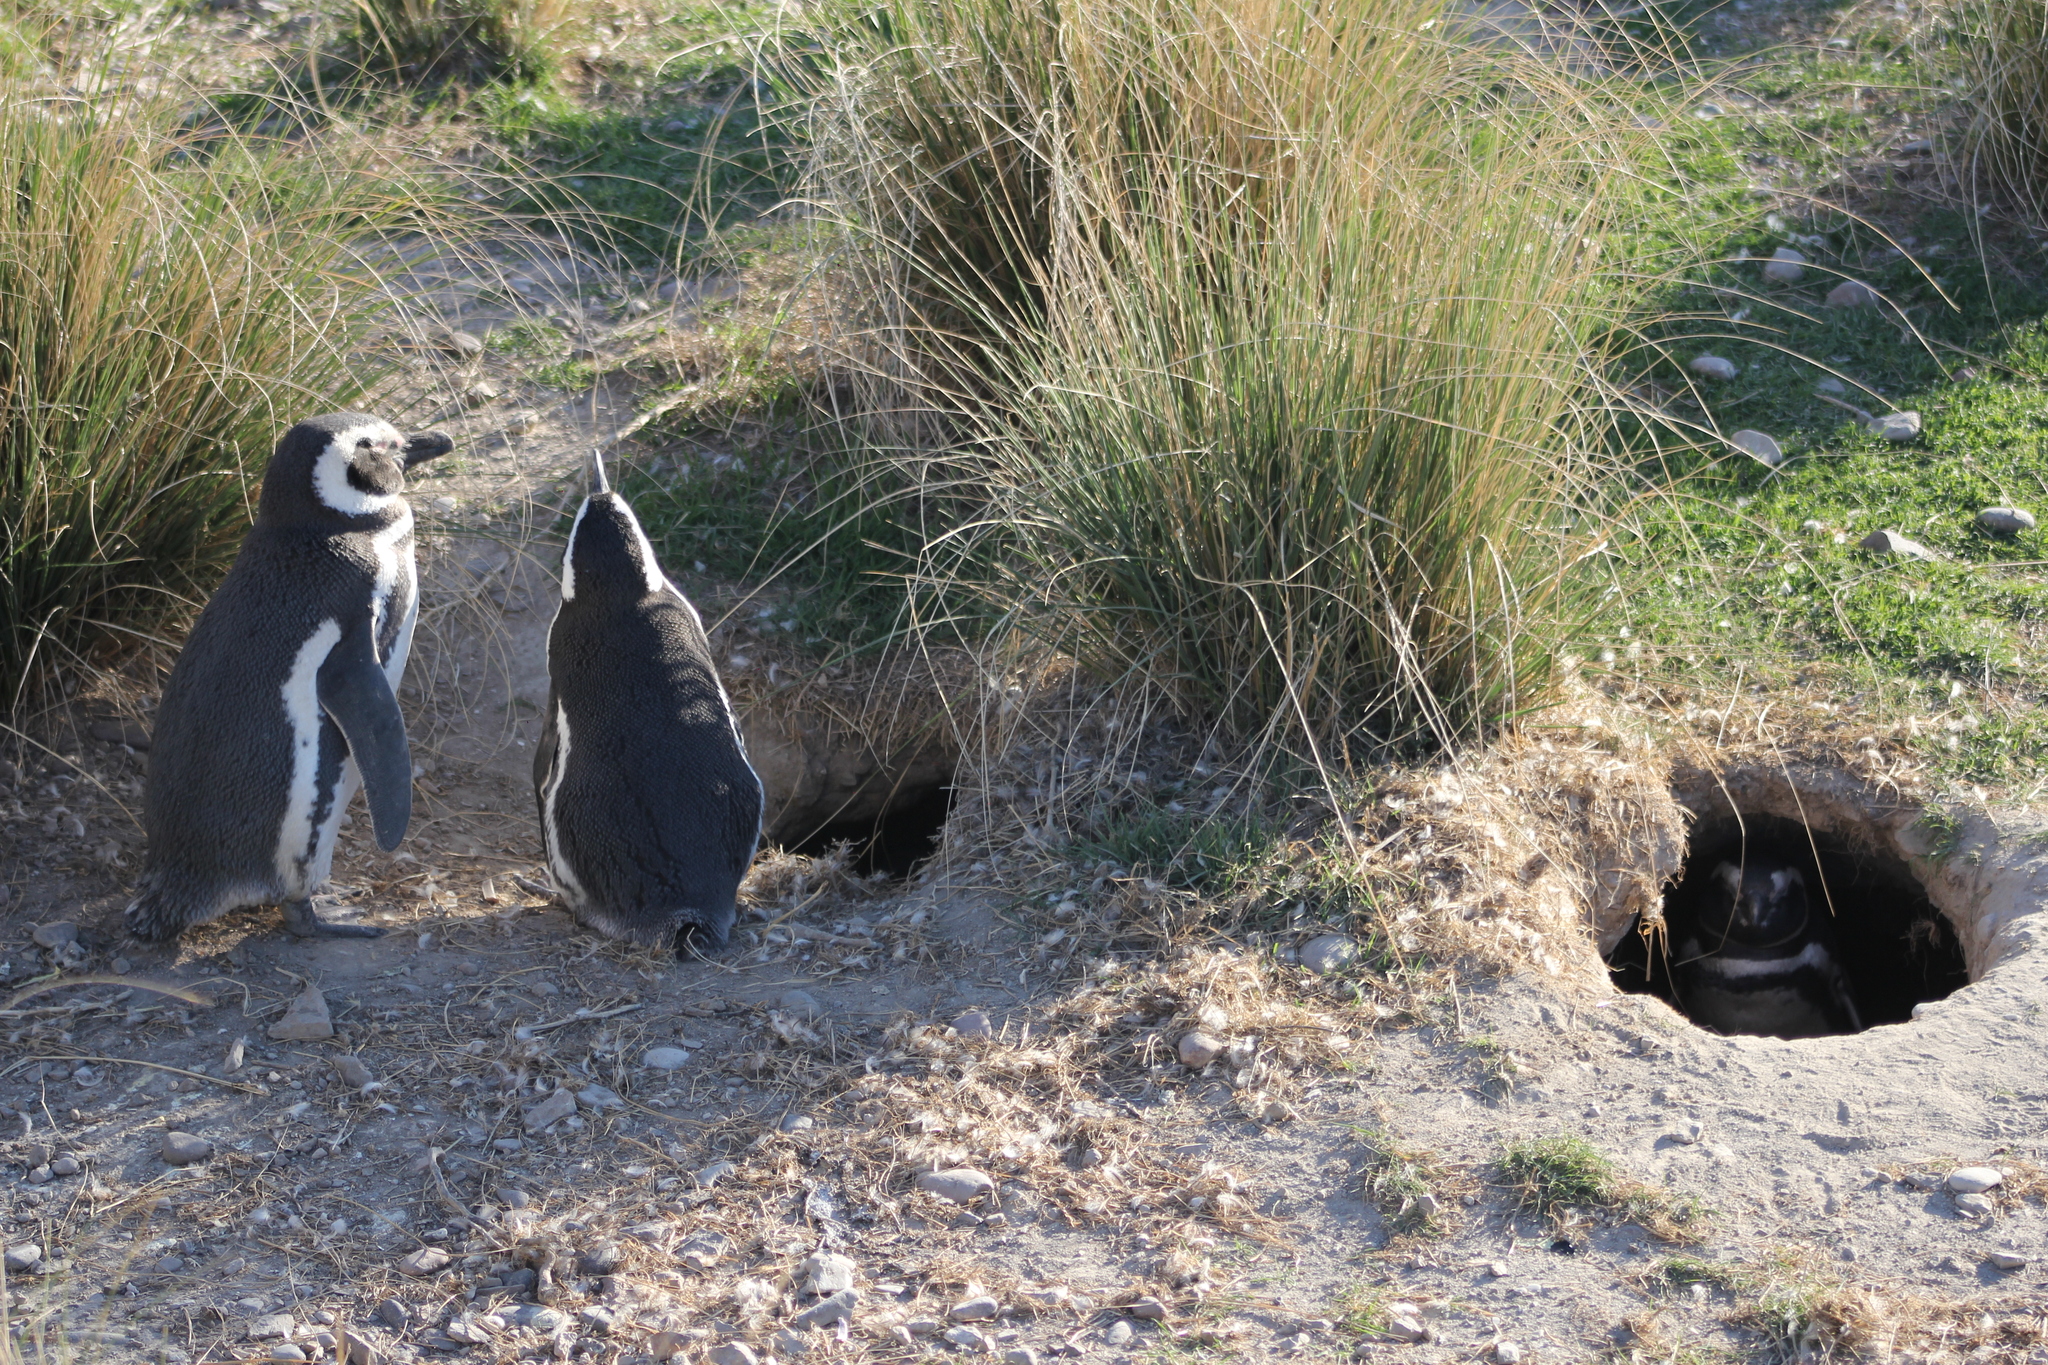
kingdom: Animalia
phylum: Chordata
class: Aves
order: Sphenisciformes
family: Spheniscidae
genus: Spheniscus
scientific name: Spheniscus magellanicus
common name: Magellanic penguin
